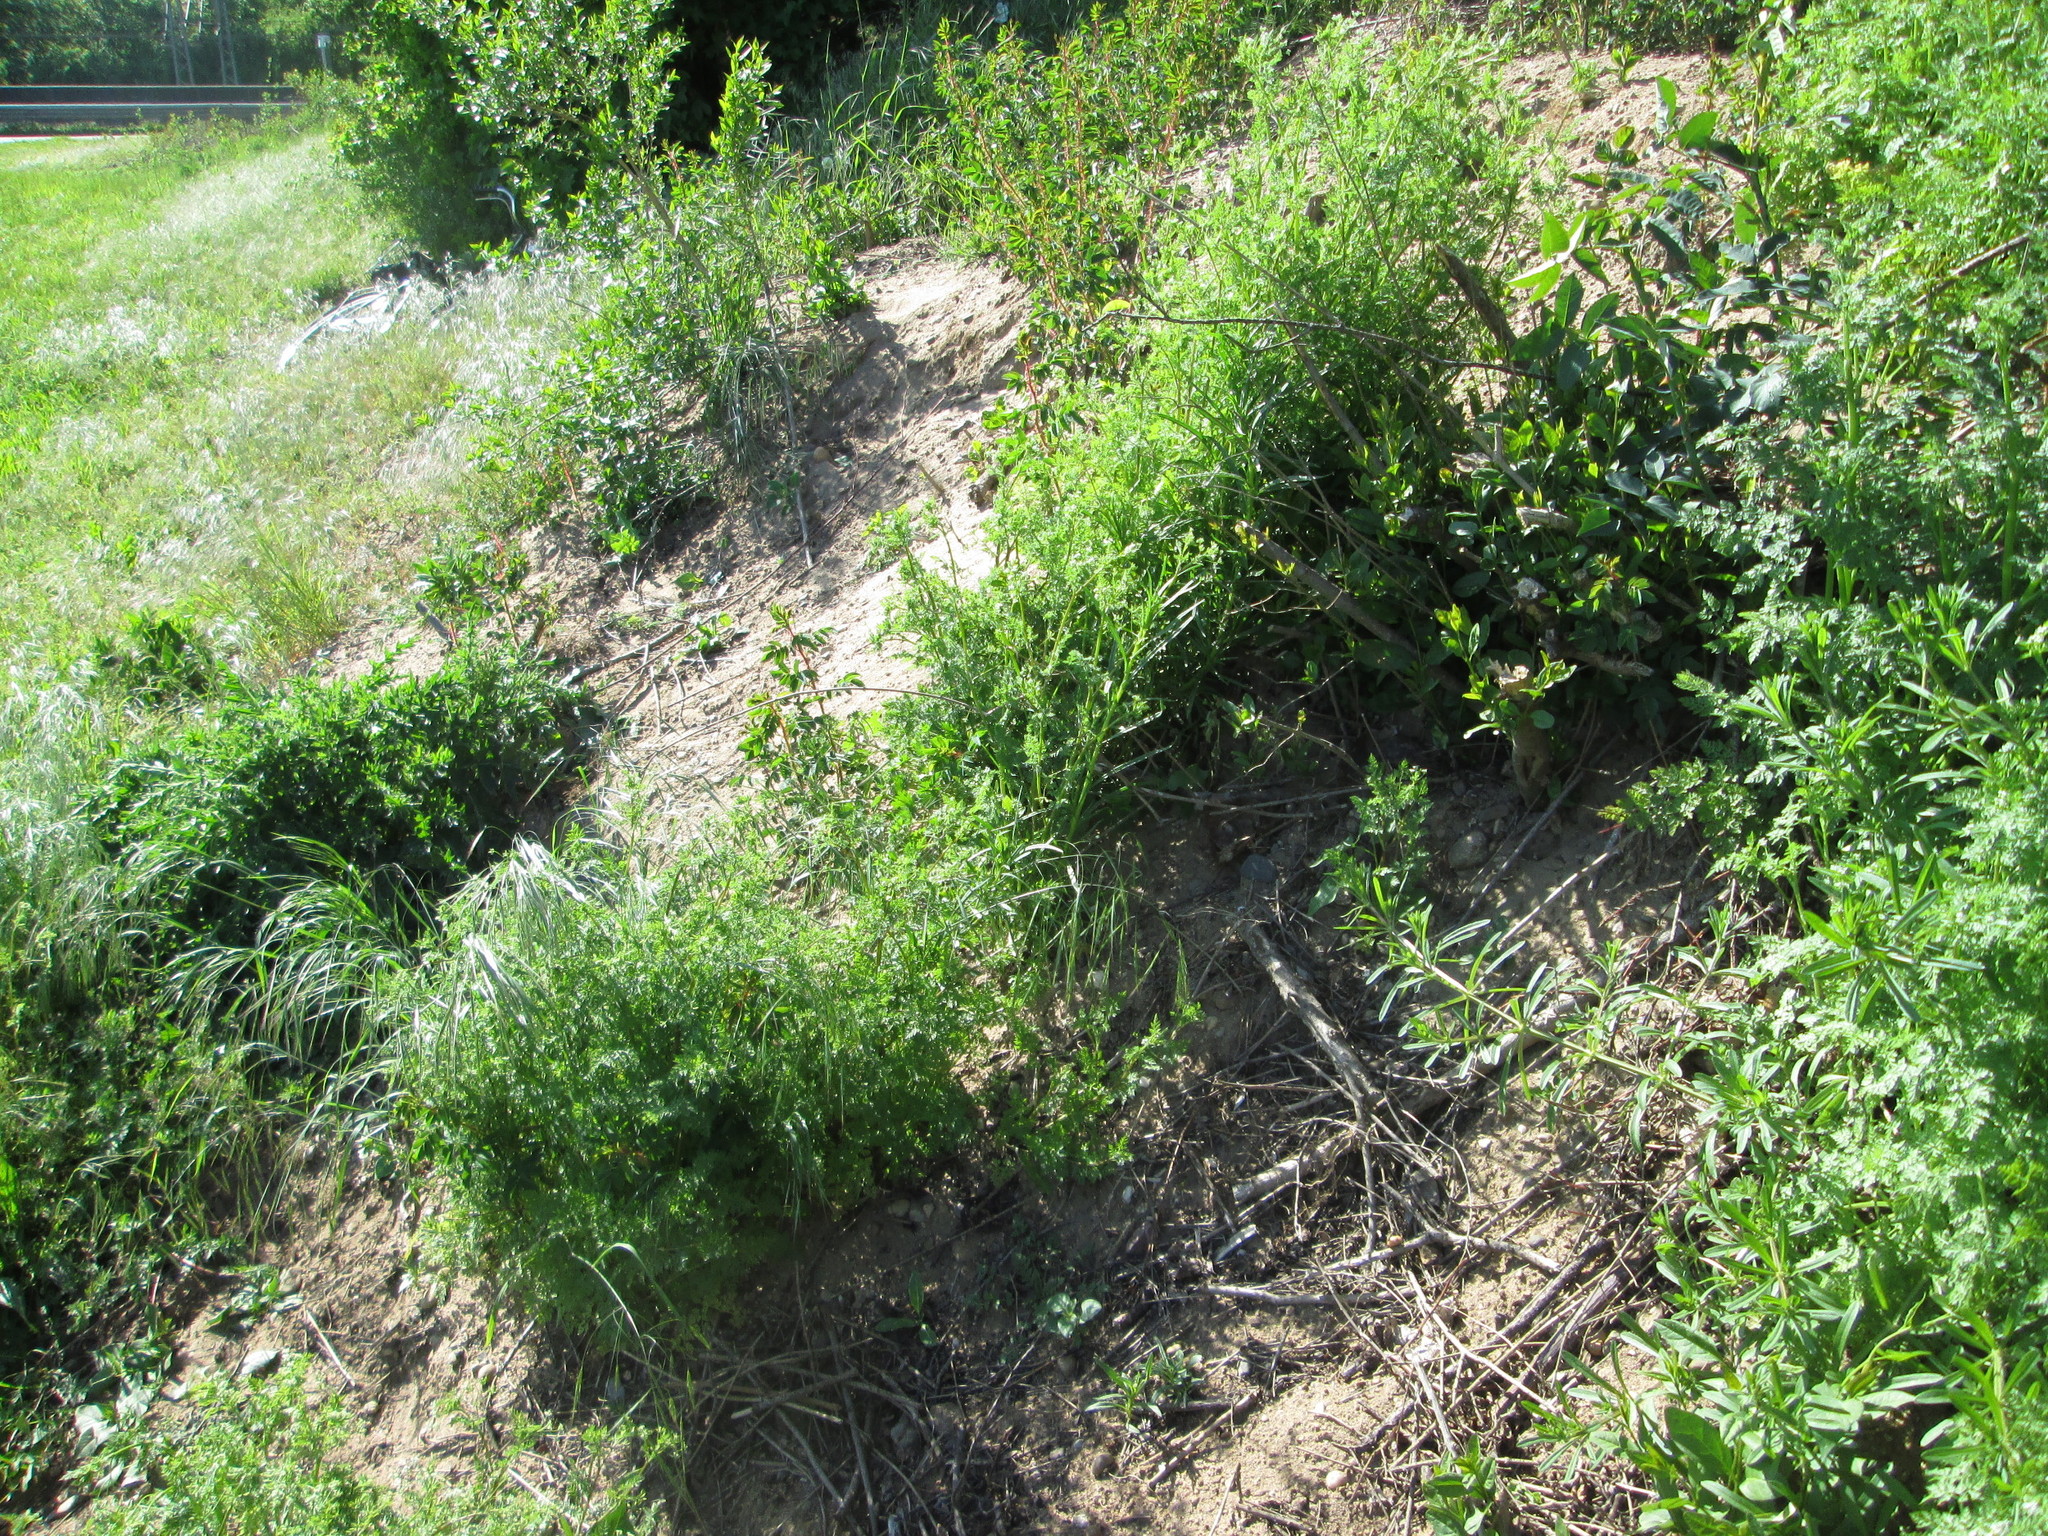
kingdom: Plantae
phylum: Tracheophyta
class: Magnoliopsida
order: Apiales
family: Apiaceae
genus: Anthriscus
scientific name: Anthriscus caucalis
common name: Bur chervil
